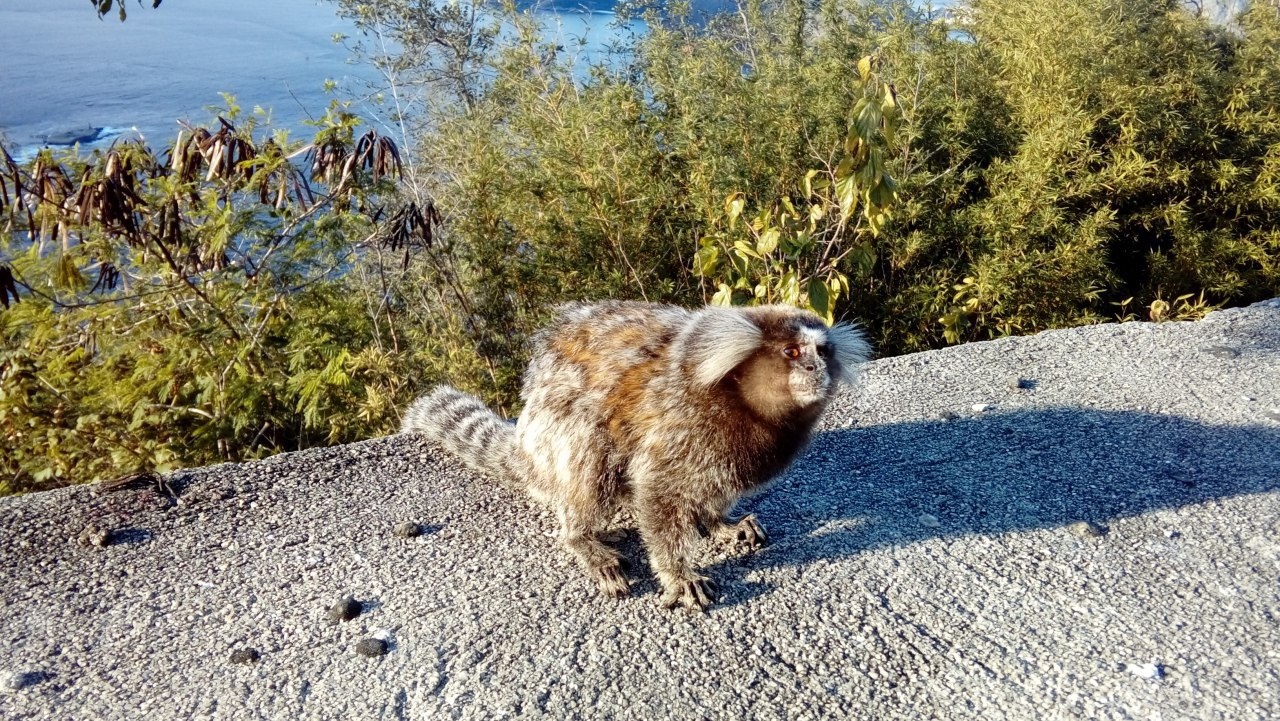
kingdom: Animalia
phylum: Chordata
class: Mammalia
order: Primates
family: Callitrichidae
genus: Callithrix
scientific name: Callithrix jacchus
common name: Common marmoset
